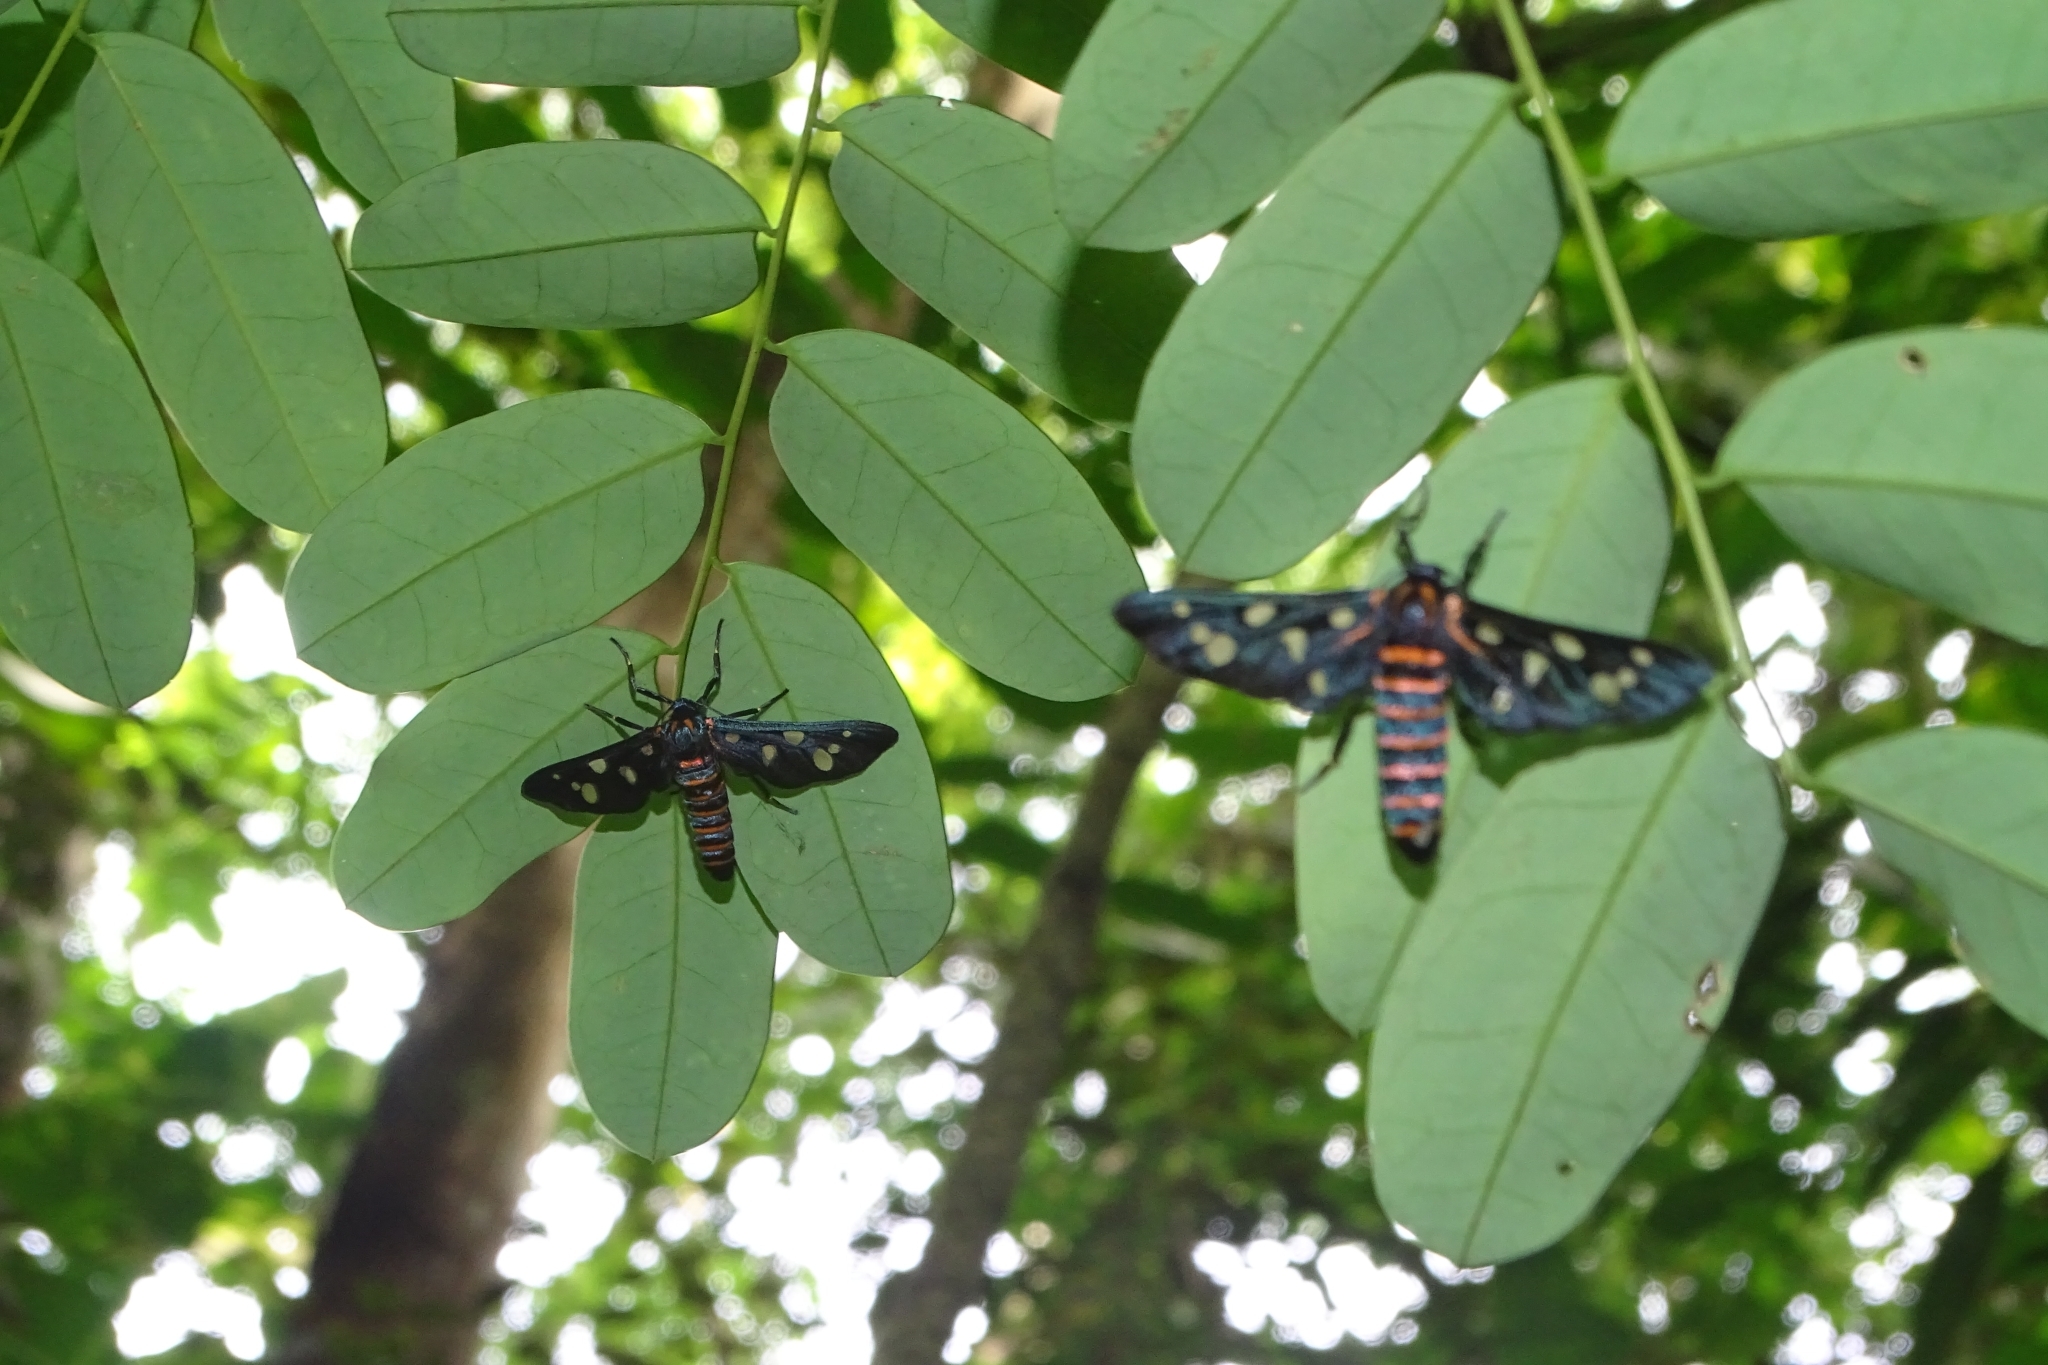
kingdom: Animalia
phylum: Arthropoda
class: Insecta
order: Lepidoptera
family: Erebidae
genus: Amata
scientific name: Amata passalis
